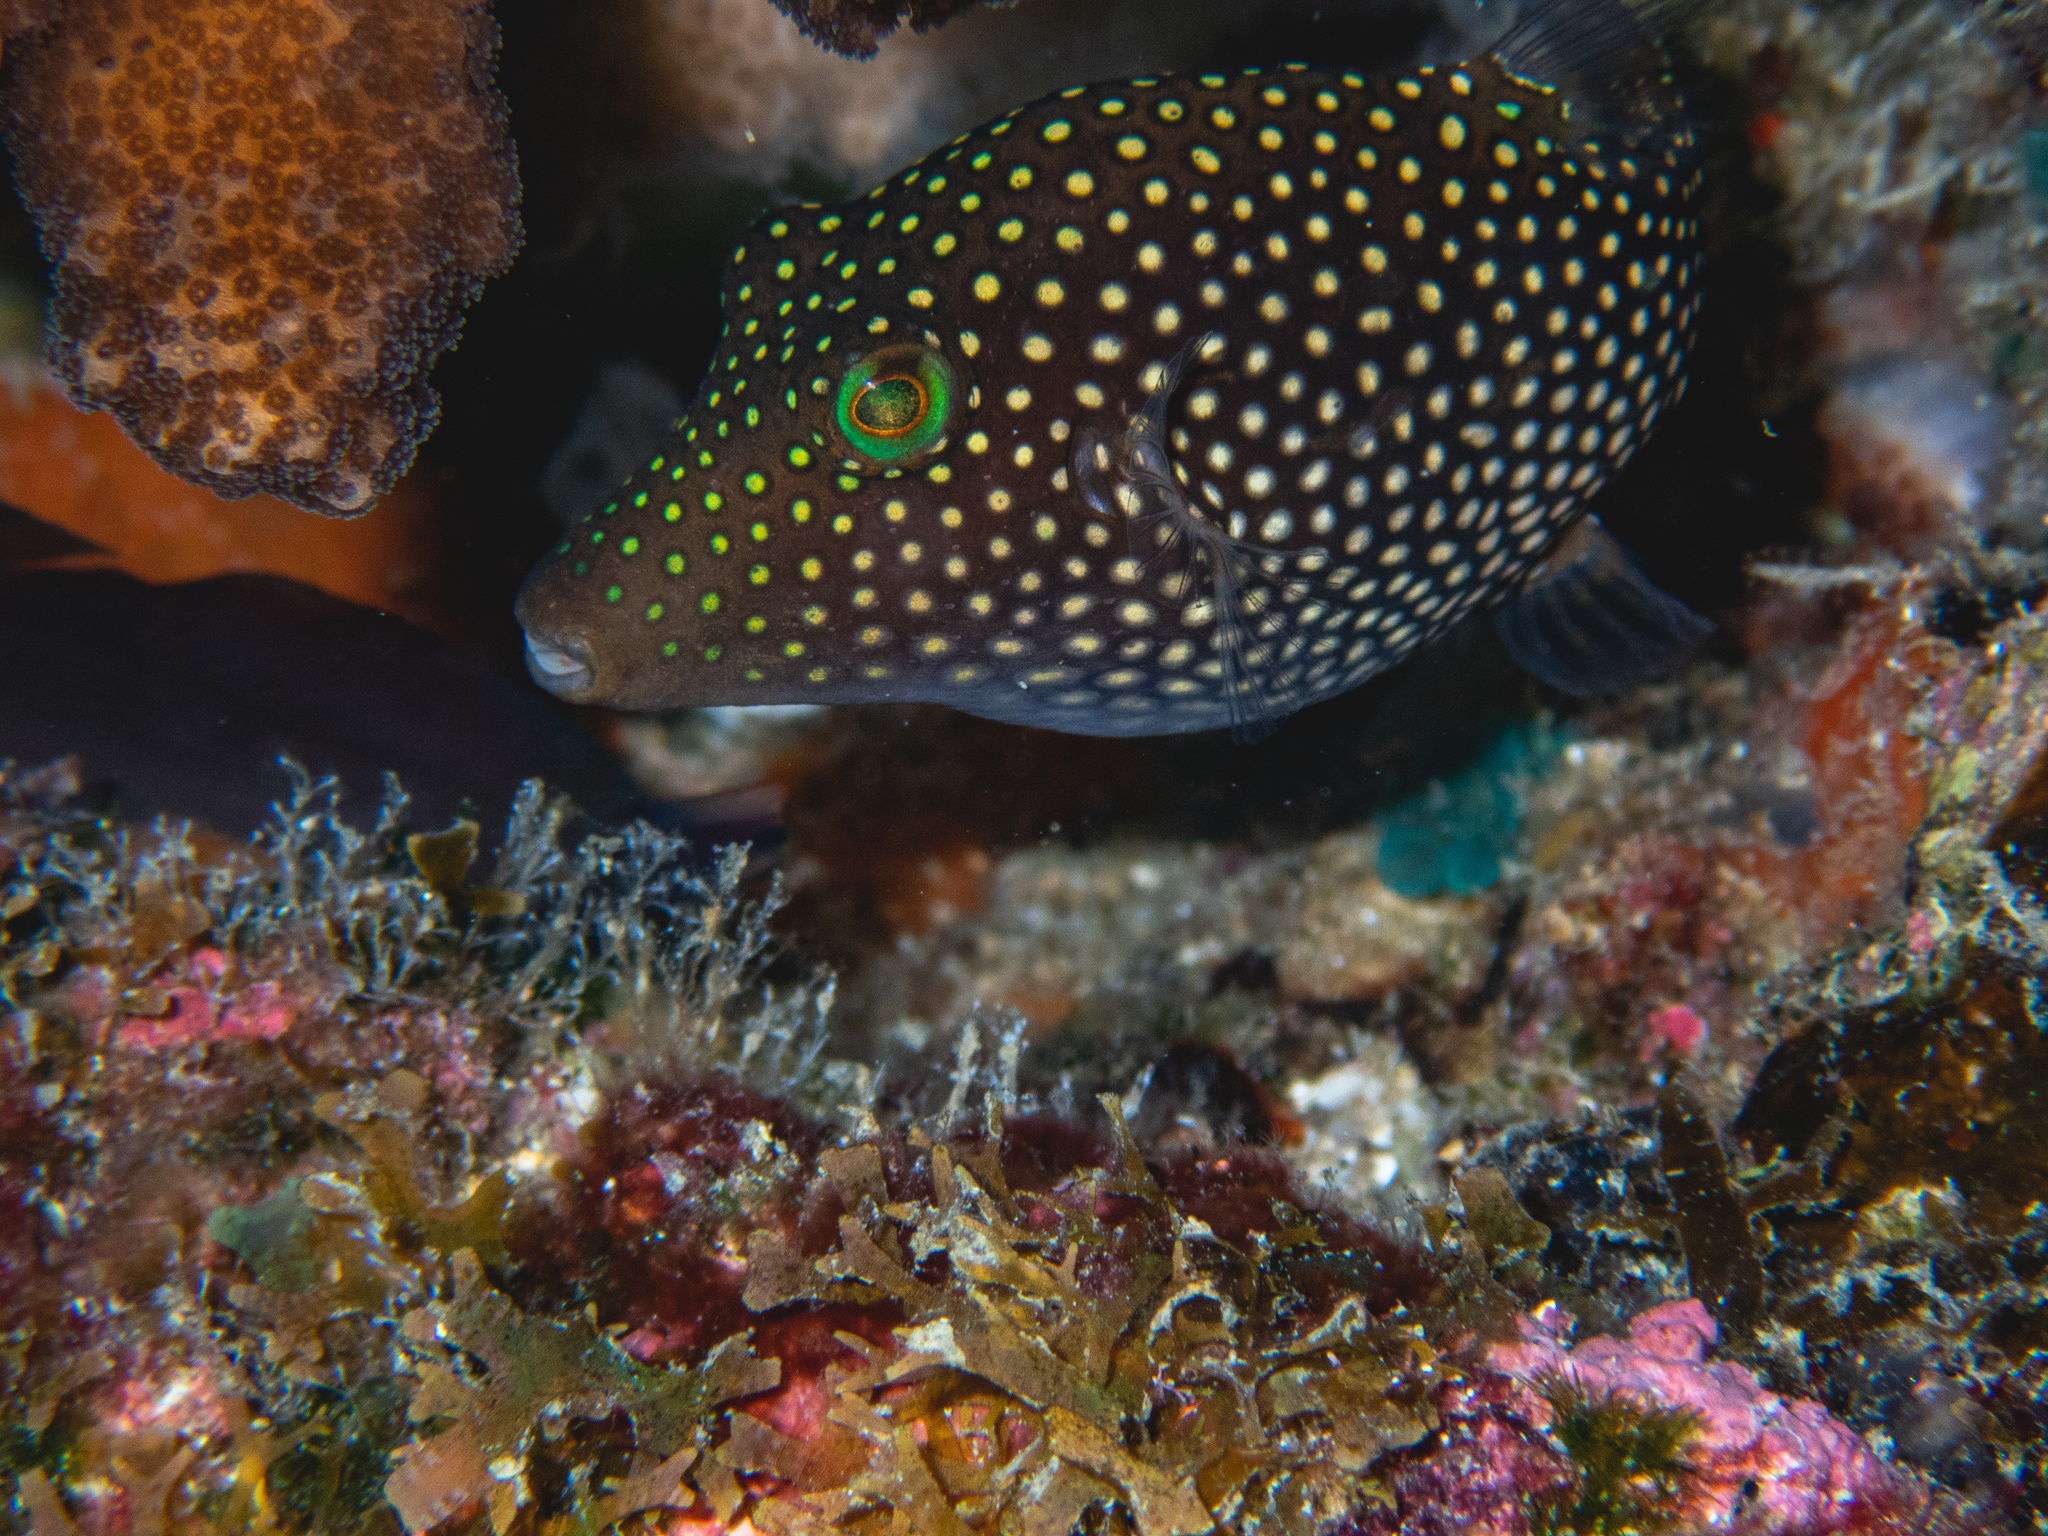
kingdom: Animalia
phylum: Chordata
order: Tetraodontiformes
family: Tetraodontidae
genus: Canthigaster
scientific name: Canthigaster punctatissima
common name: Spotted sharpnose puffer
